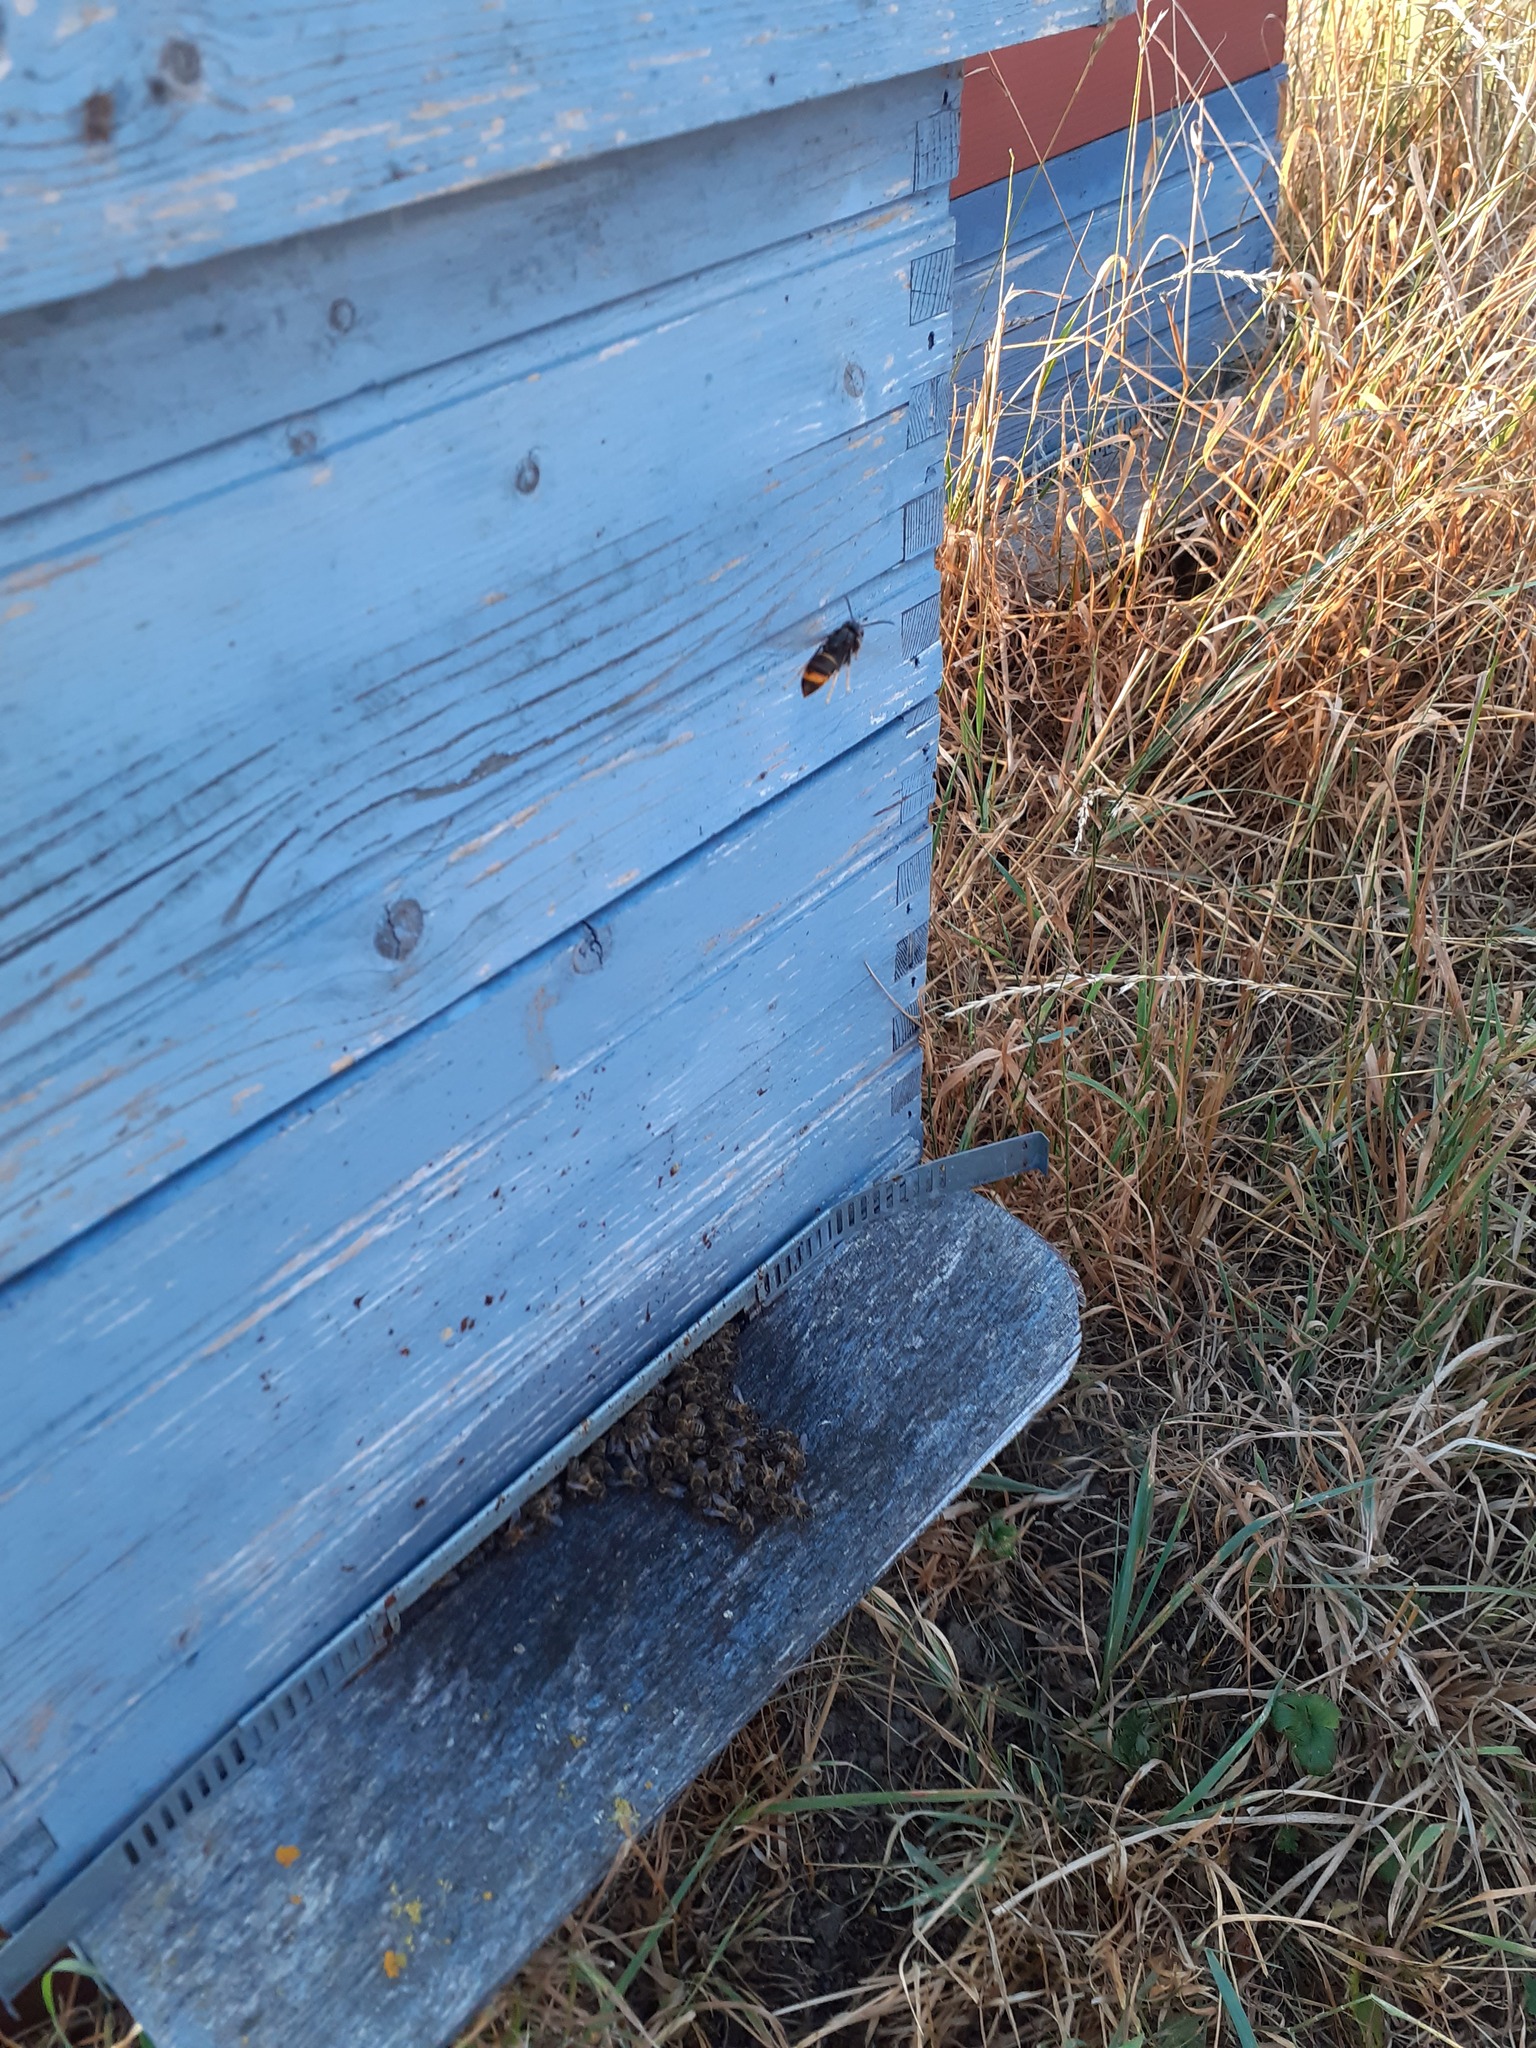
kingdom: Animalia
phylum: Arthropoda
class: Insecta
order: Hymenoptera
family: Vespidae
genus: Vespa
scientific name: Vespa velutina
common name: Asian hornet
